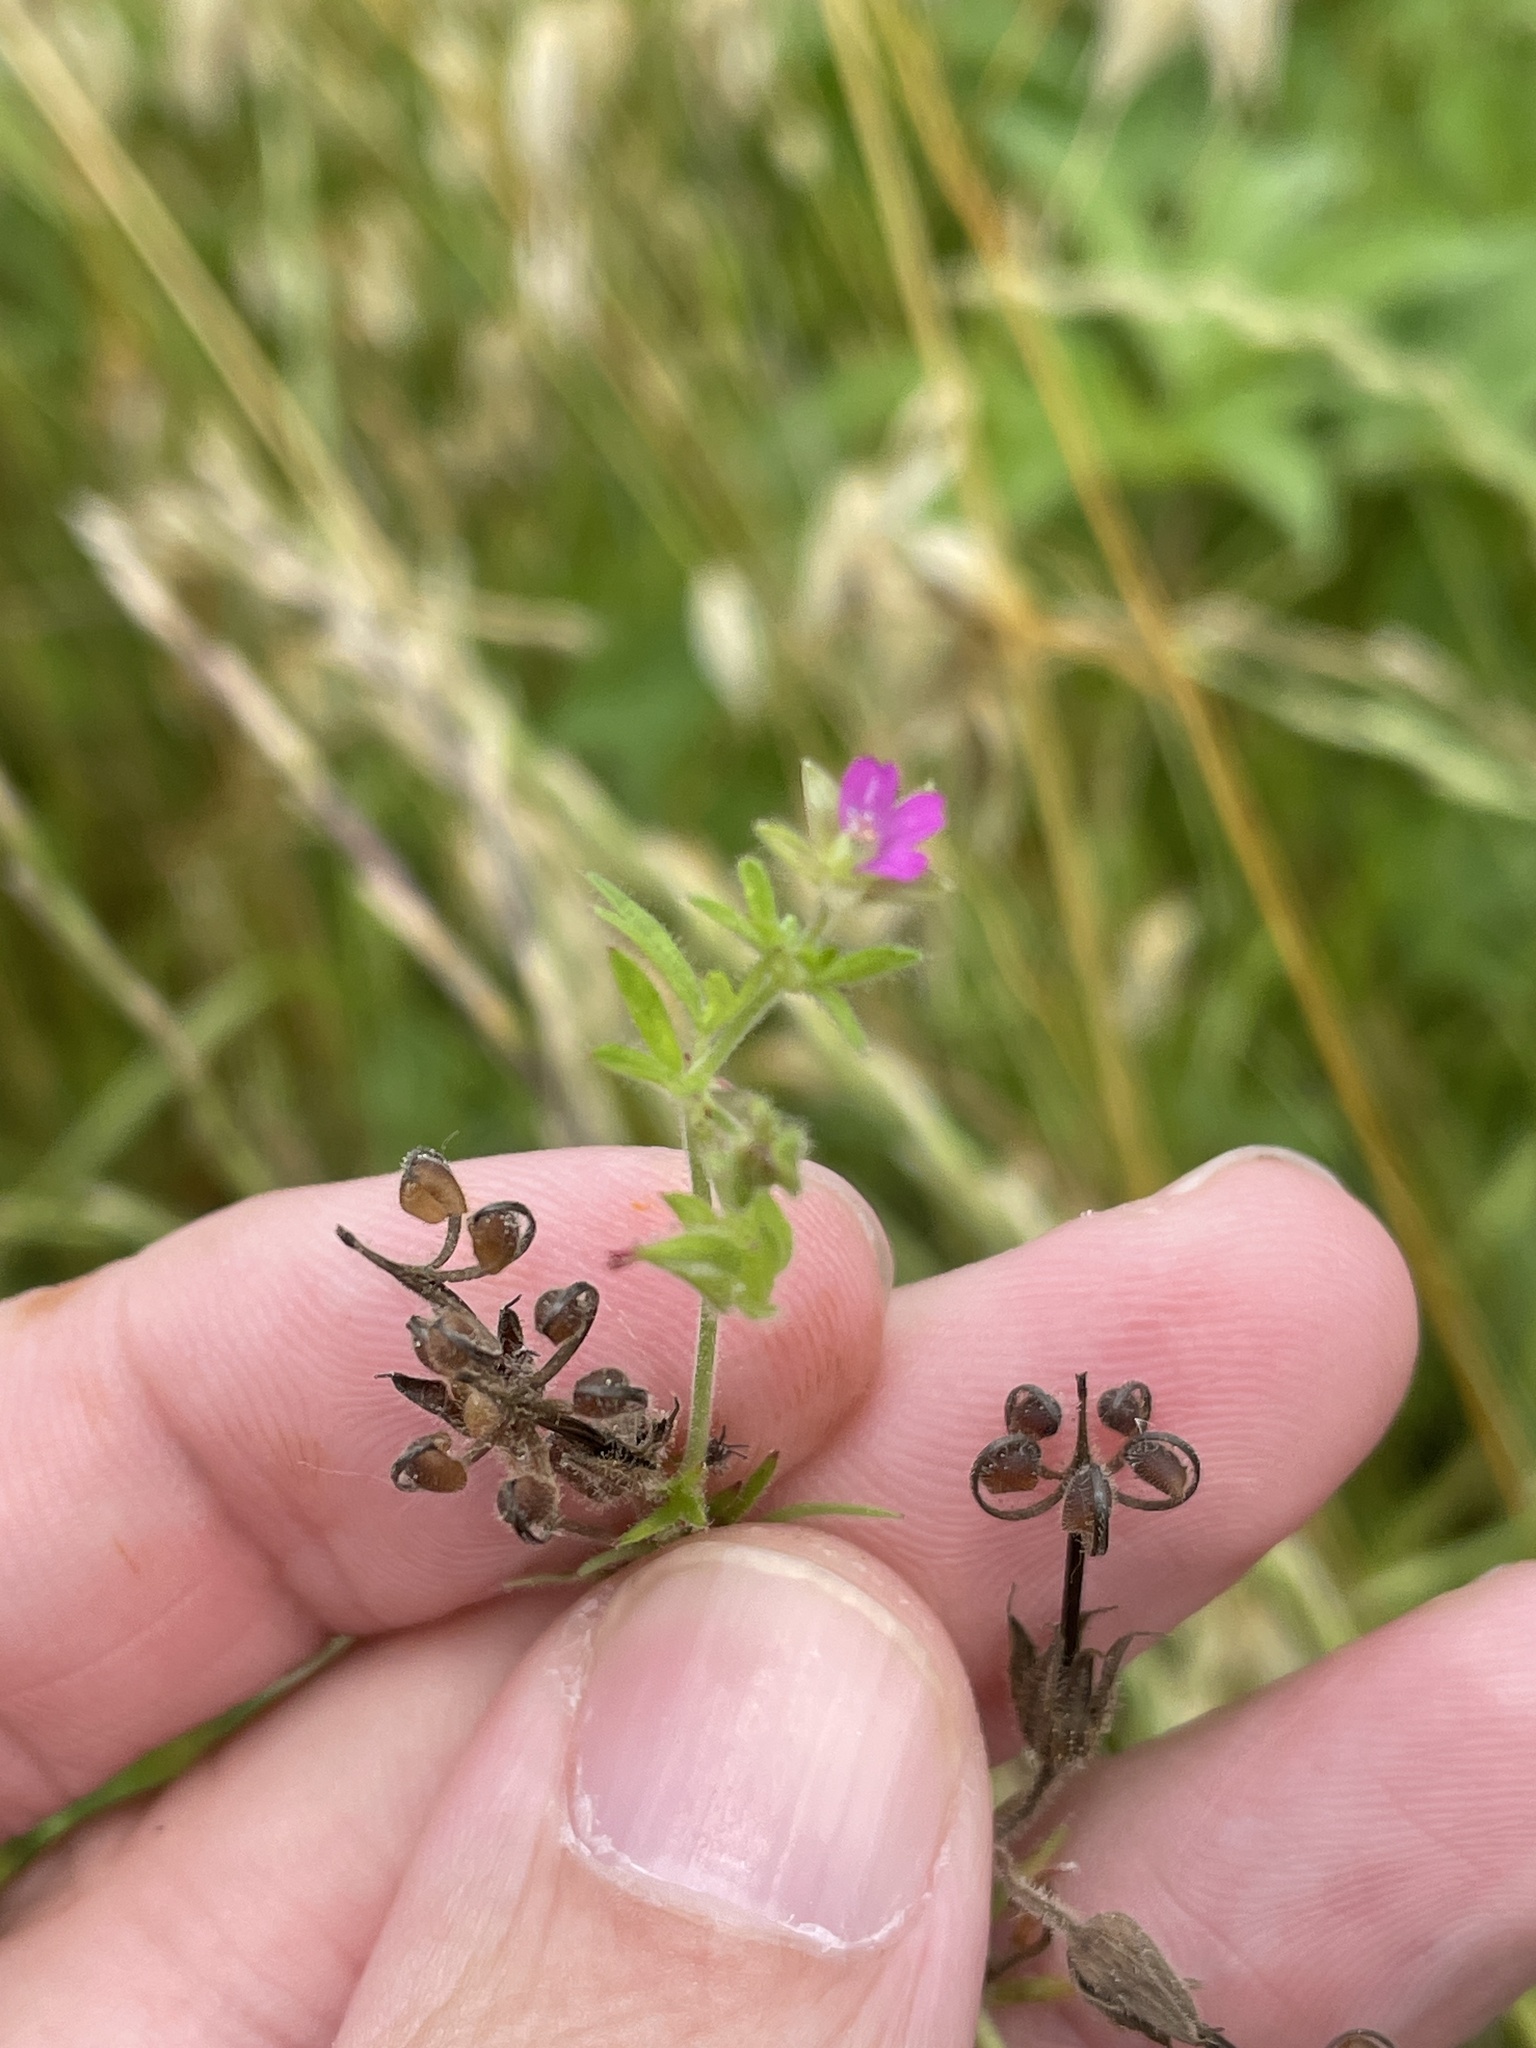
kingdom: Plantae
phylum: Tracheophyta
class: Magnoliopsida
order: Geraniales
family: Geraniaceae
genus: Geranium
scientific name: Geranium dissectum
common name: Cut-leaved crane's-bill
